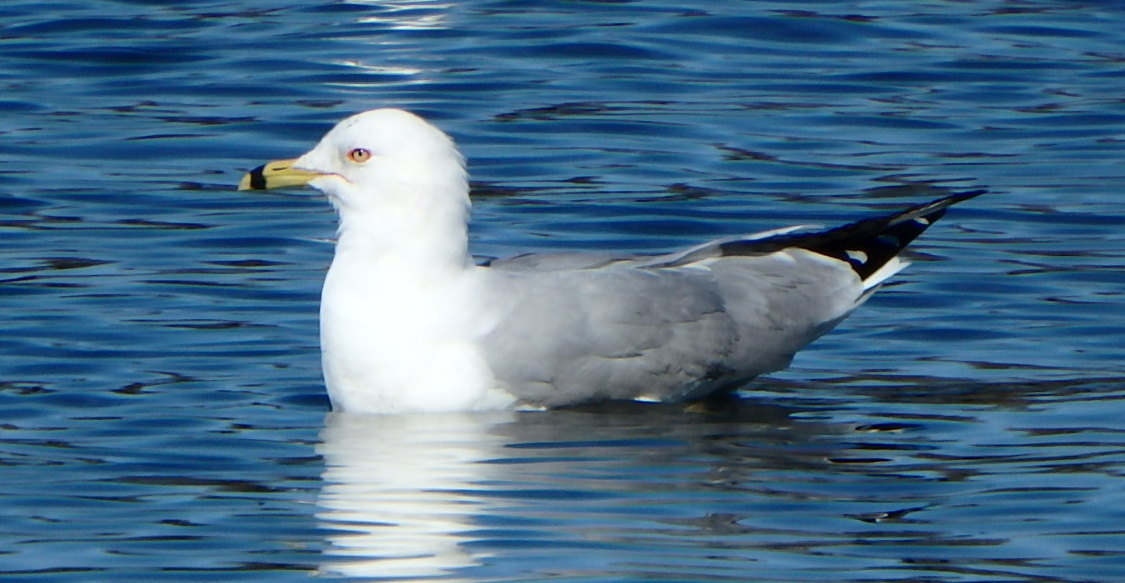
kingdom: Animalia
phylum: Chordata
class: Aves
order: Charadriiformes
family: Laridae
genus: Larus
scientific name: Larus delawarensis
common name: Ring-billed gull
